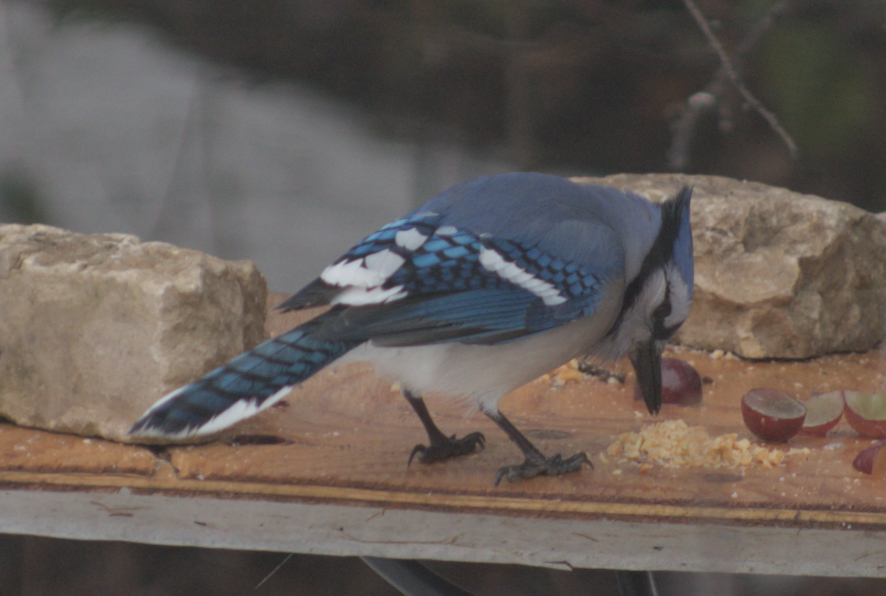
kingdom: Animalia
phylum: Chordata
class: Aves
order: Passeriformes
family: Corvidae
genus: Cyanocitta
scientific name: Cyanocitta cristata
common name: Blue jay
